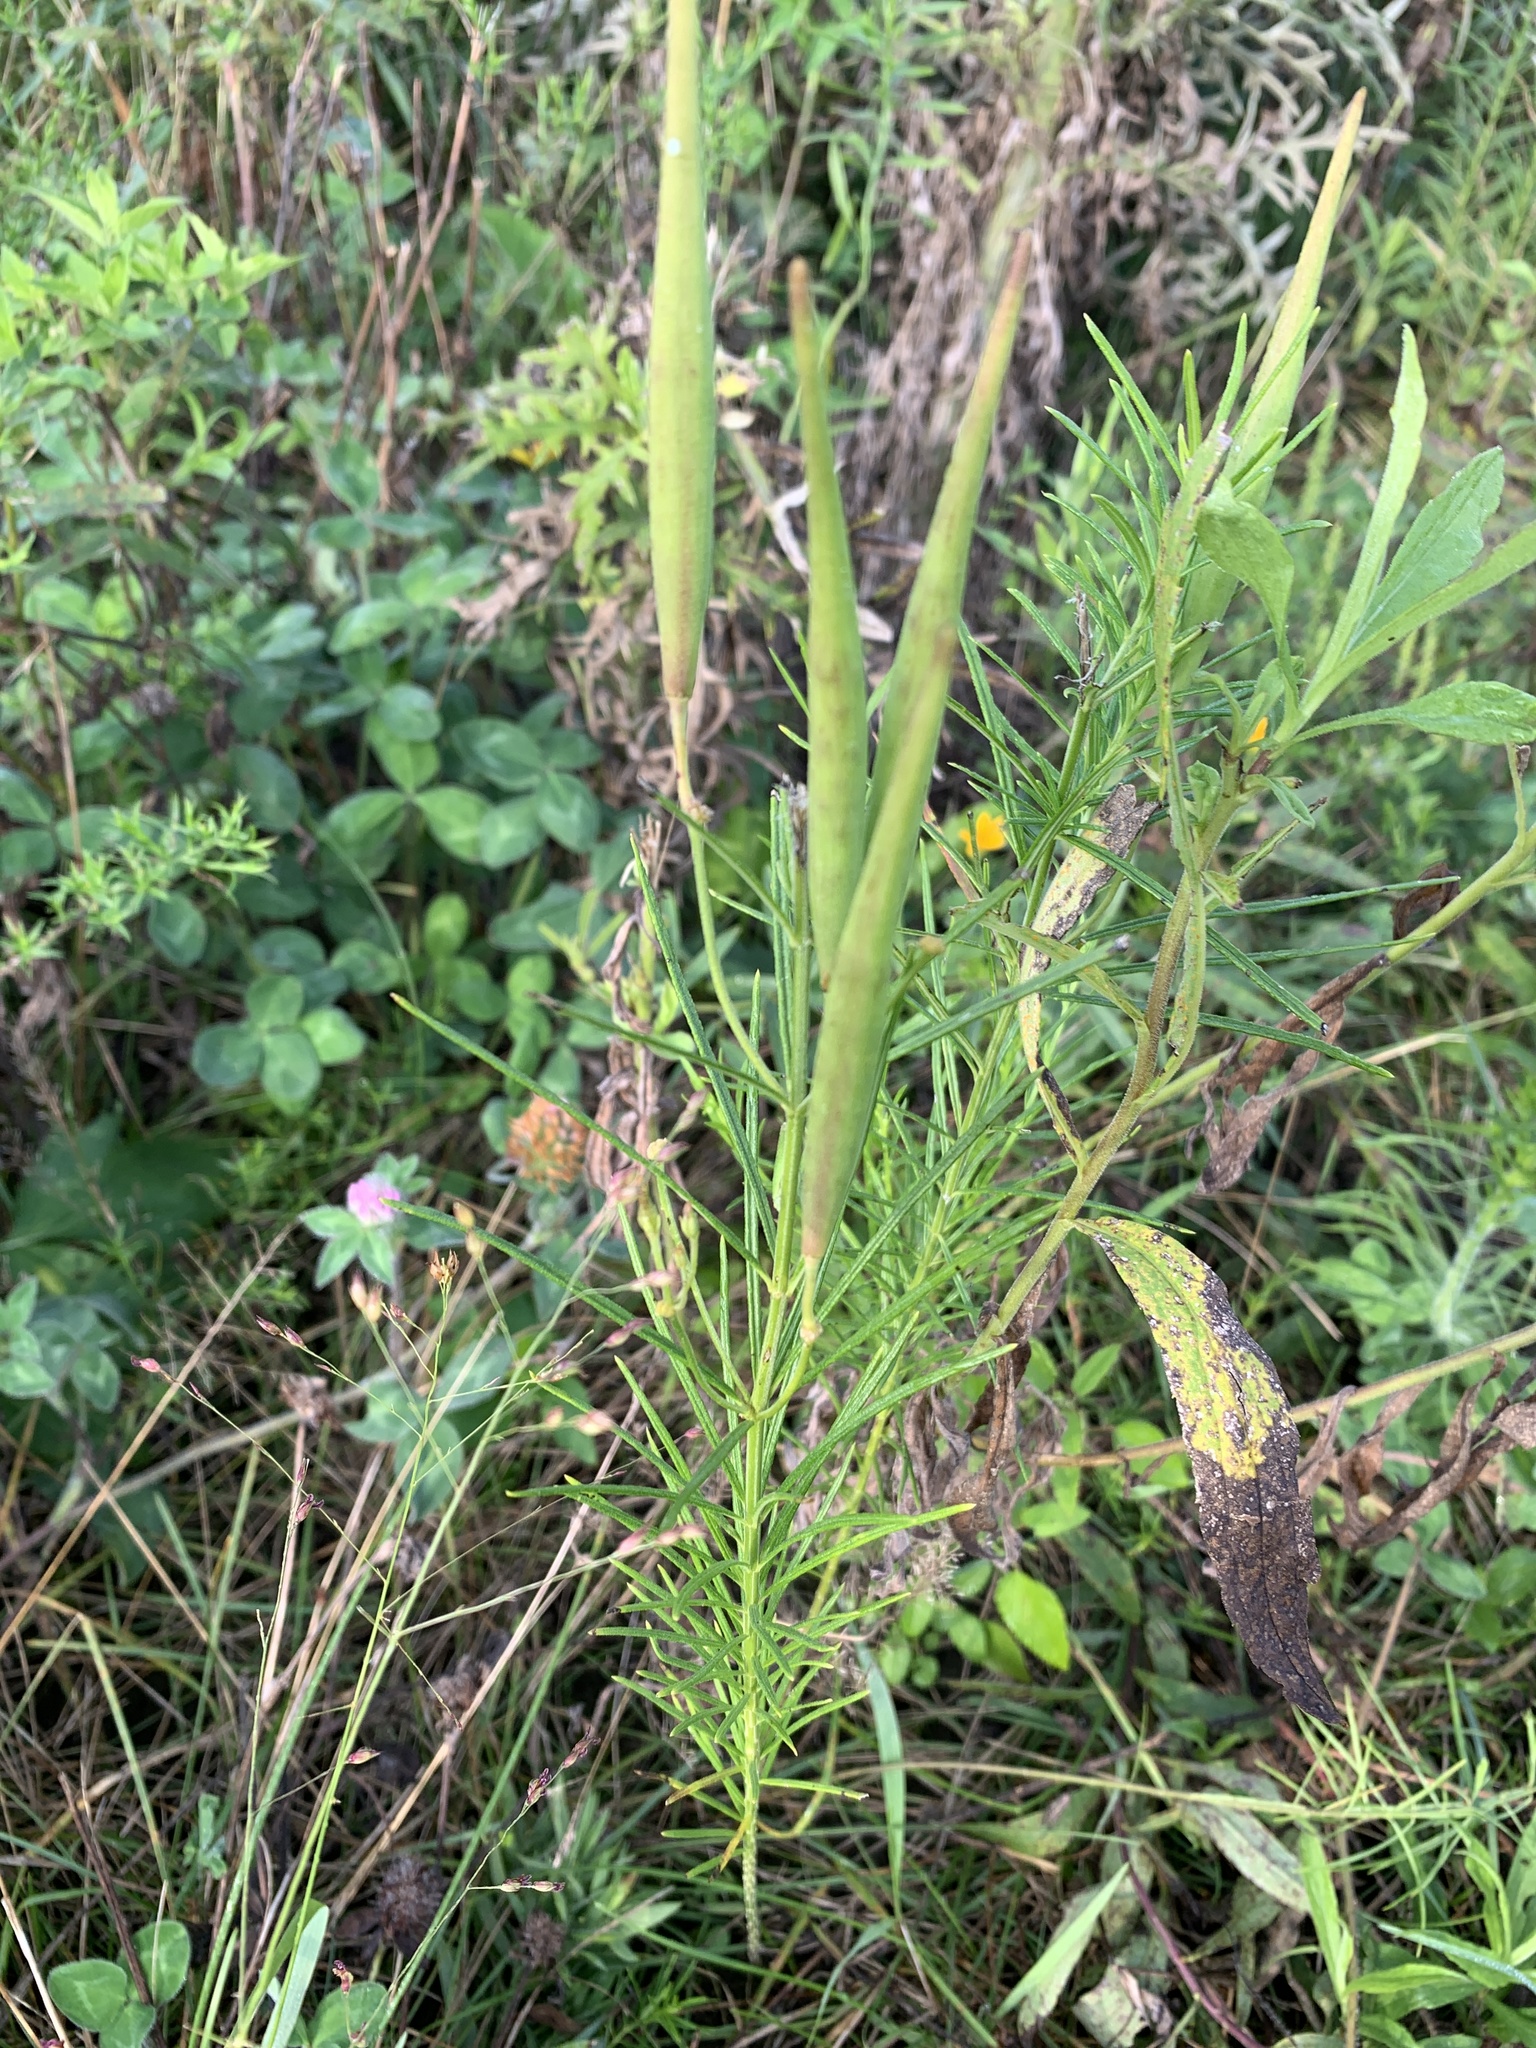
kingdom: Plantae
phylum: Tracheophyta
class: Magnoliopsida
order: Gentianales
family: Apocynaceae
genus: Asclepias
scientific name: Asclepias verticillata
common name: Eastern whorled milkweed
